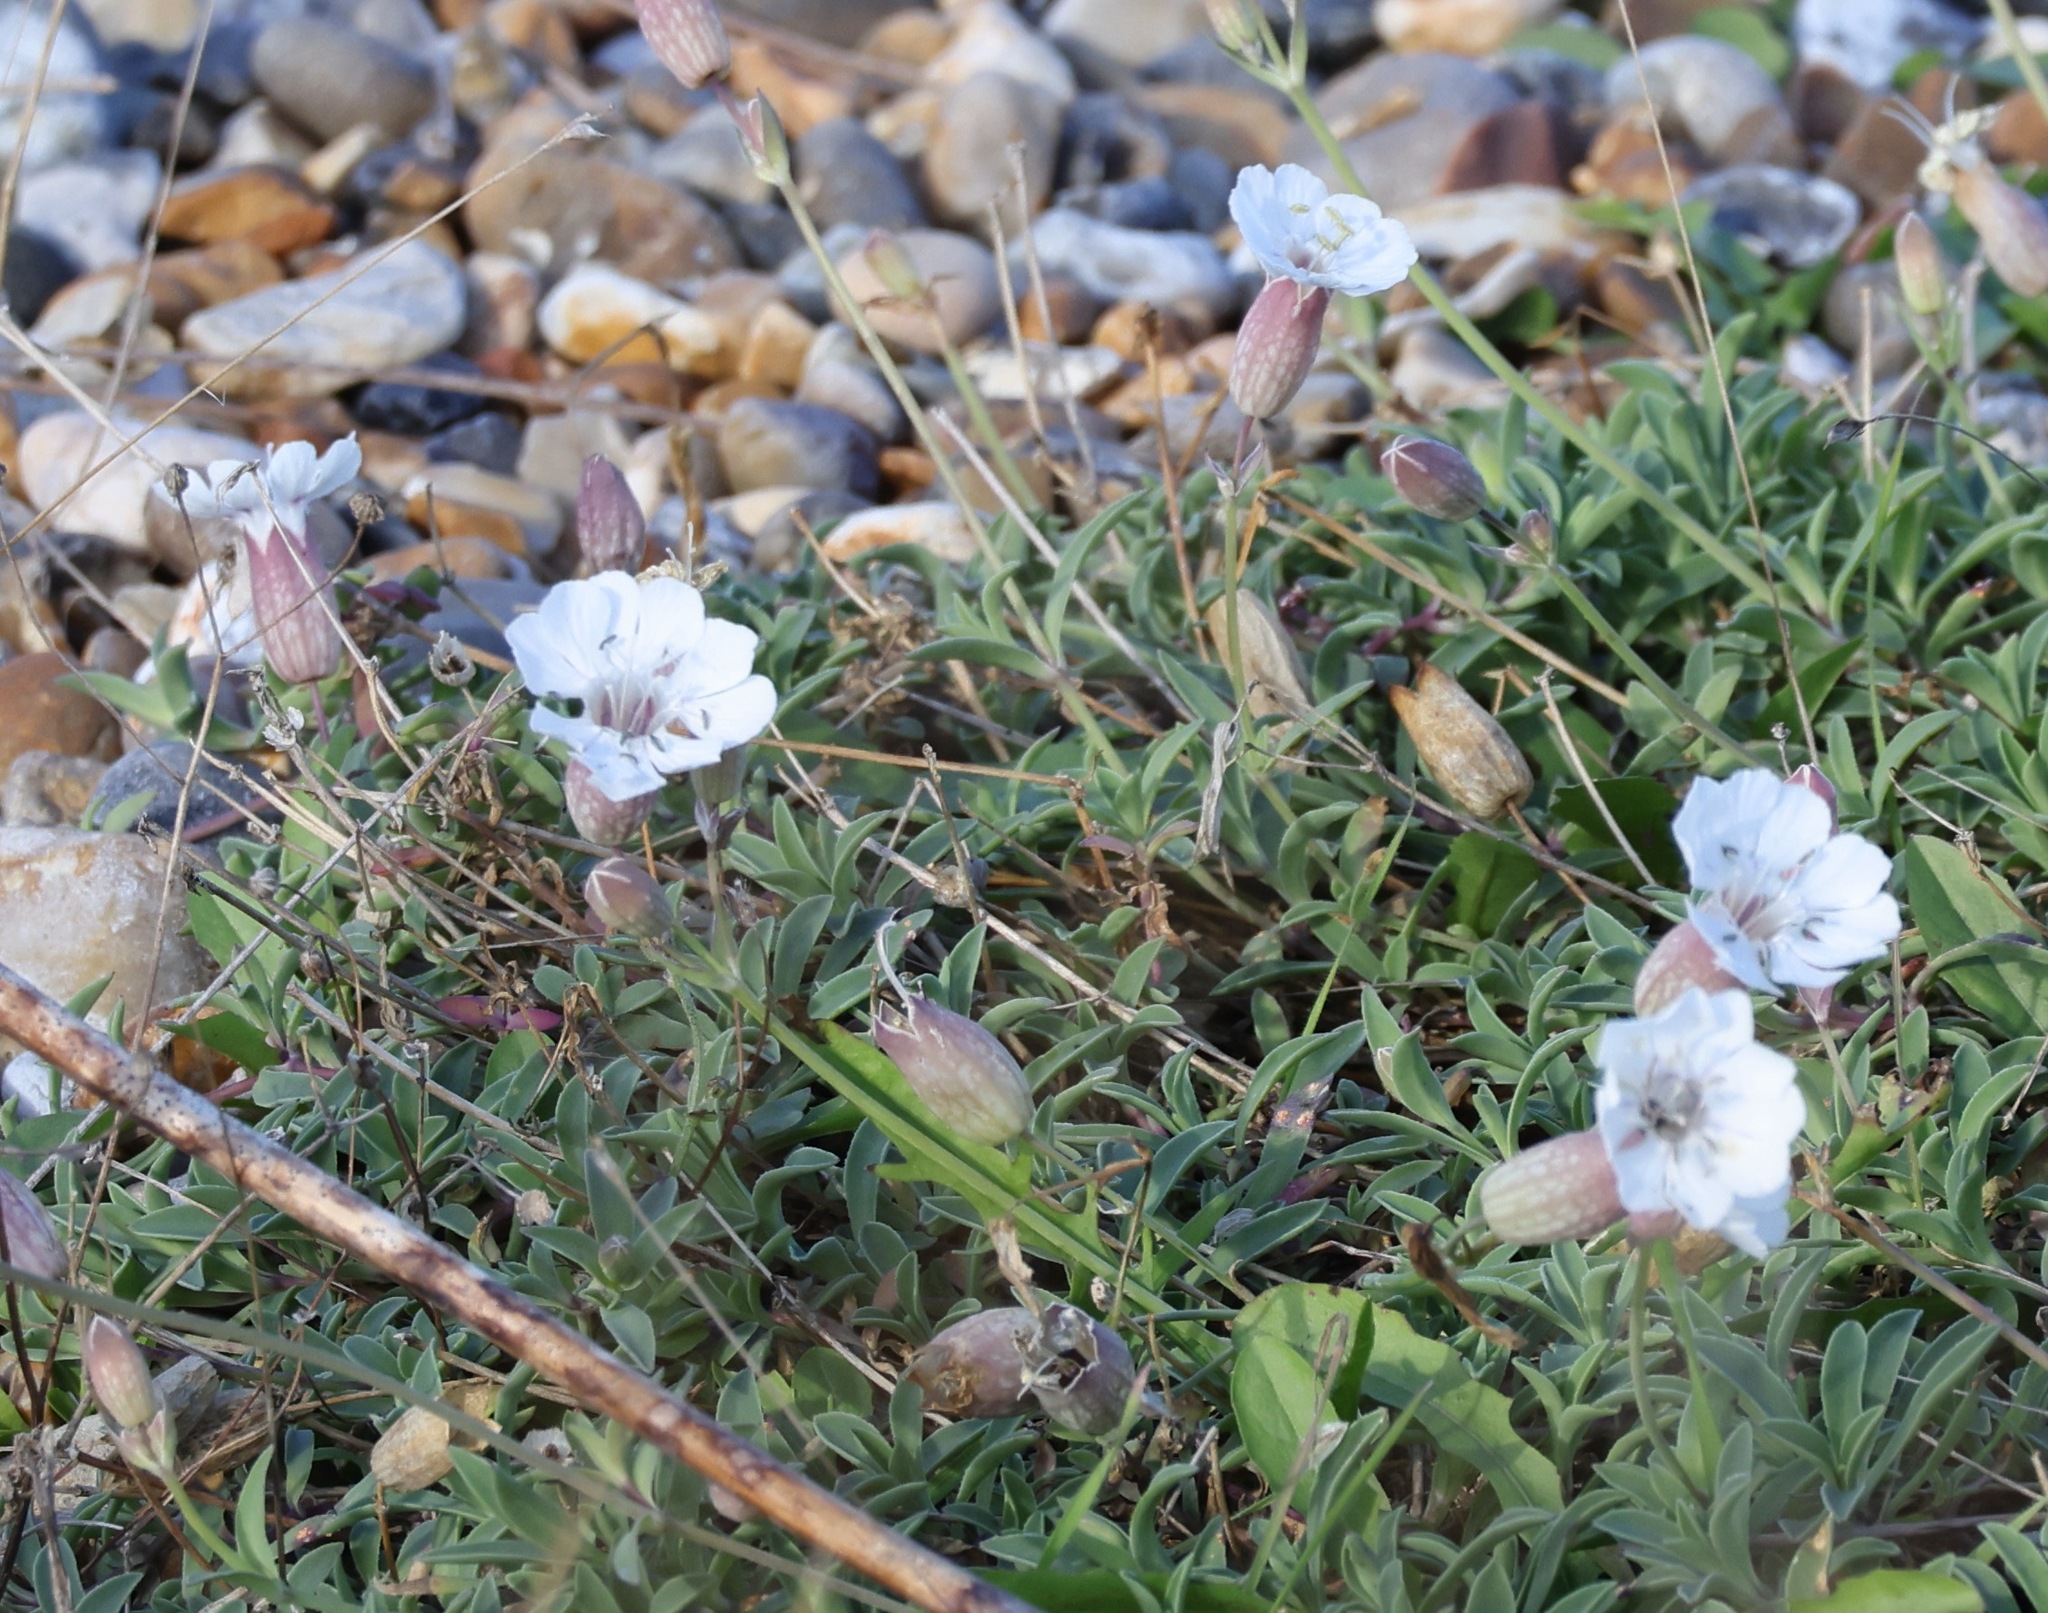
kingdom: Plantae
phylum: Tracheophyta
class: Magnoliopsida
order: Caryophyllales
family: Caryophyllaceae
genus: Silene
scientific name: Silene uniflora
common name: Sea campion
